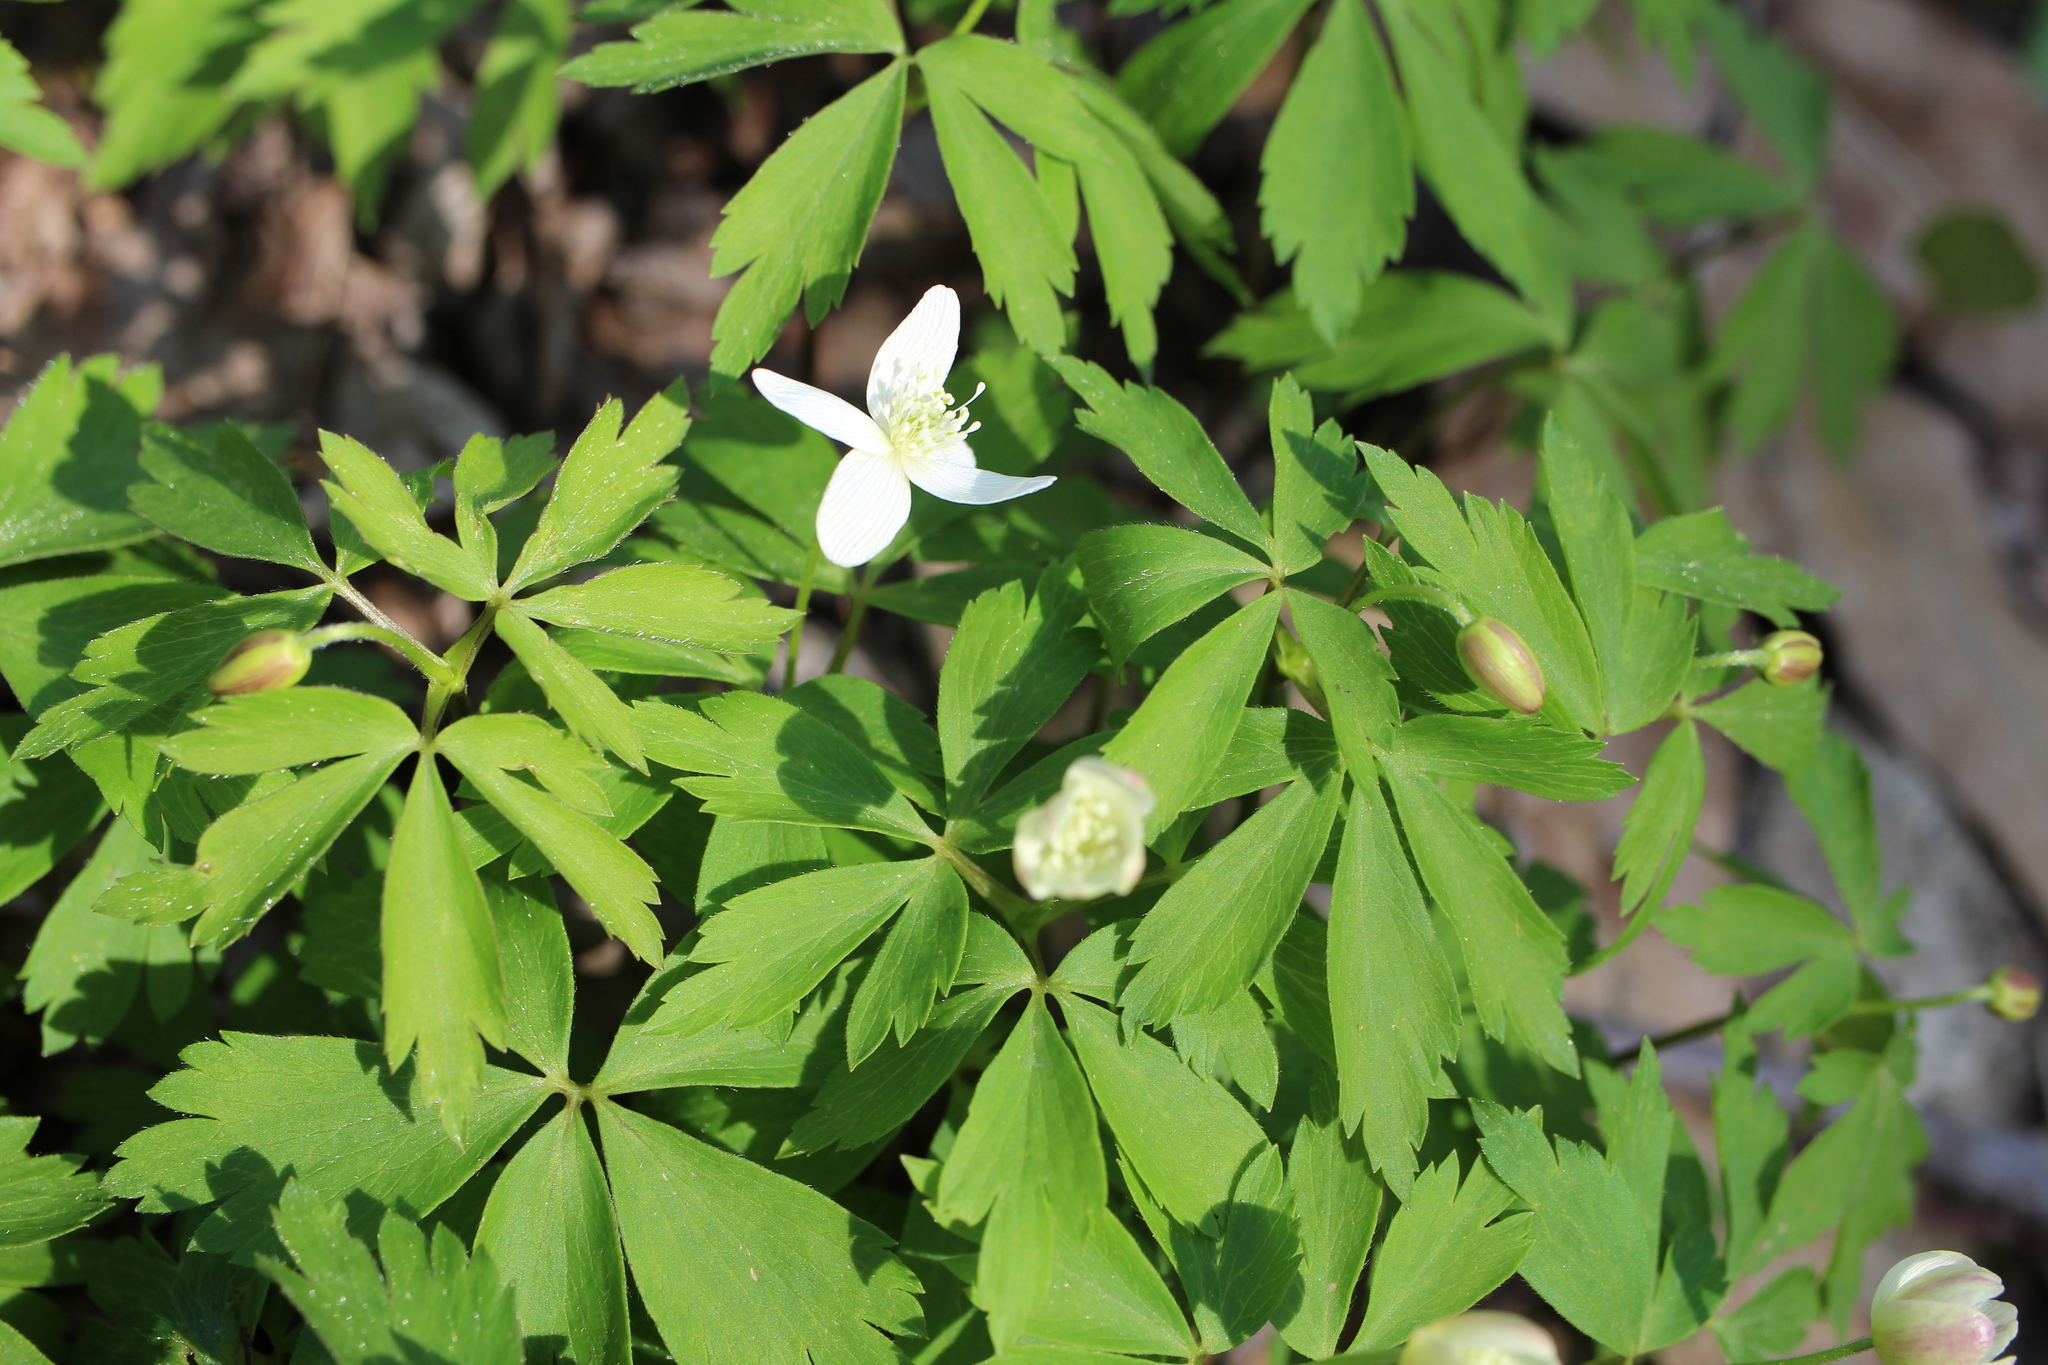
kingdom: Plantae
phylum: Tracheophyta
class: Magnoliopsida
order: Ranunculales
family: Ranunculaceae
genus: Anemone
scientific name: Anemone quinquefolia
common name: Wood anemone
